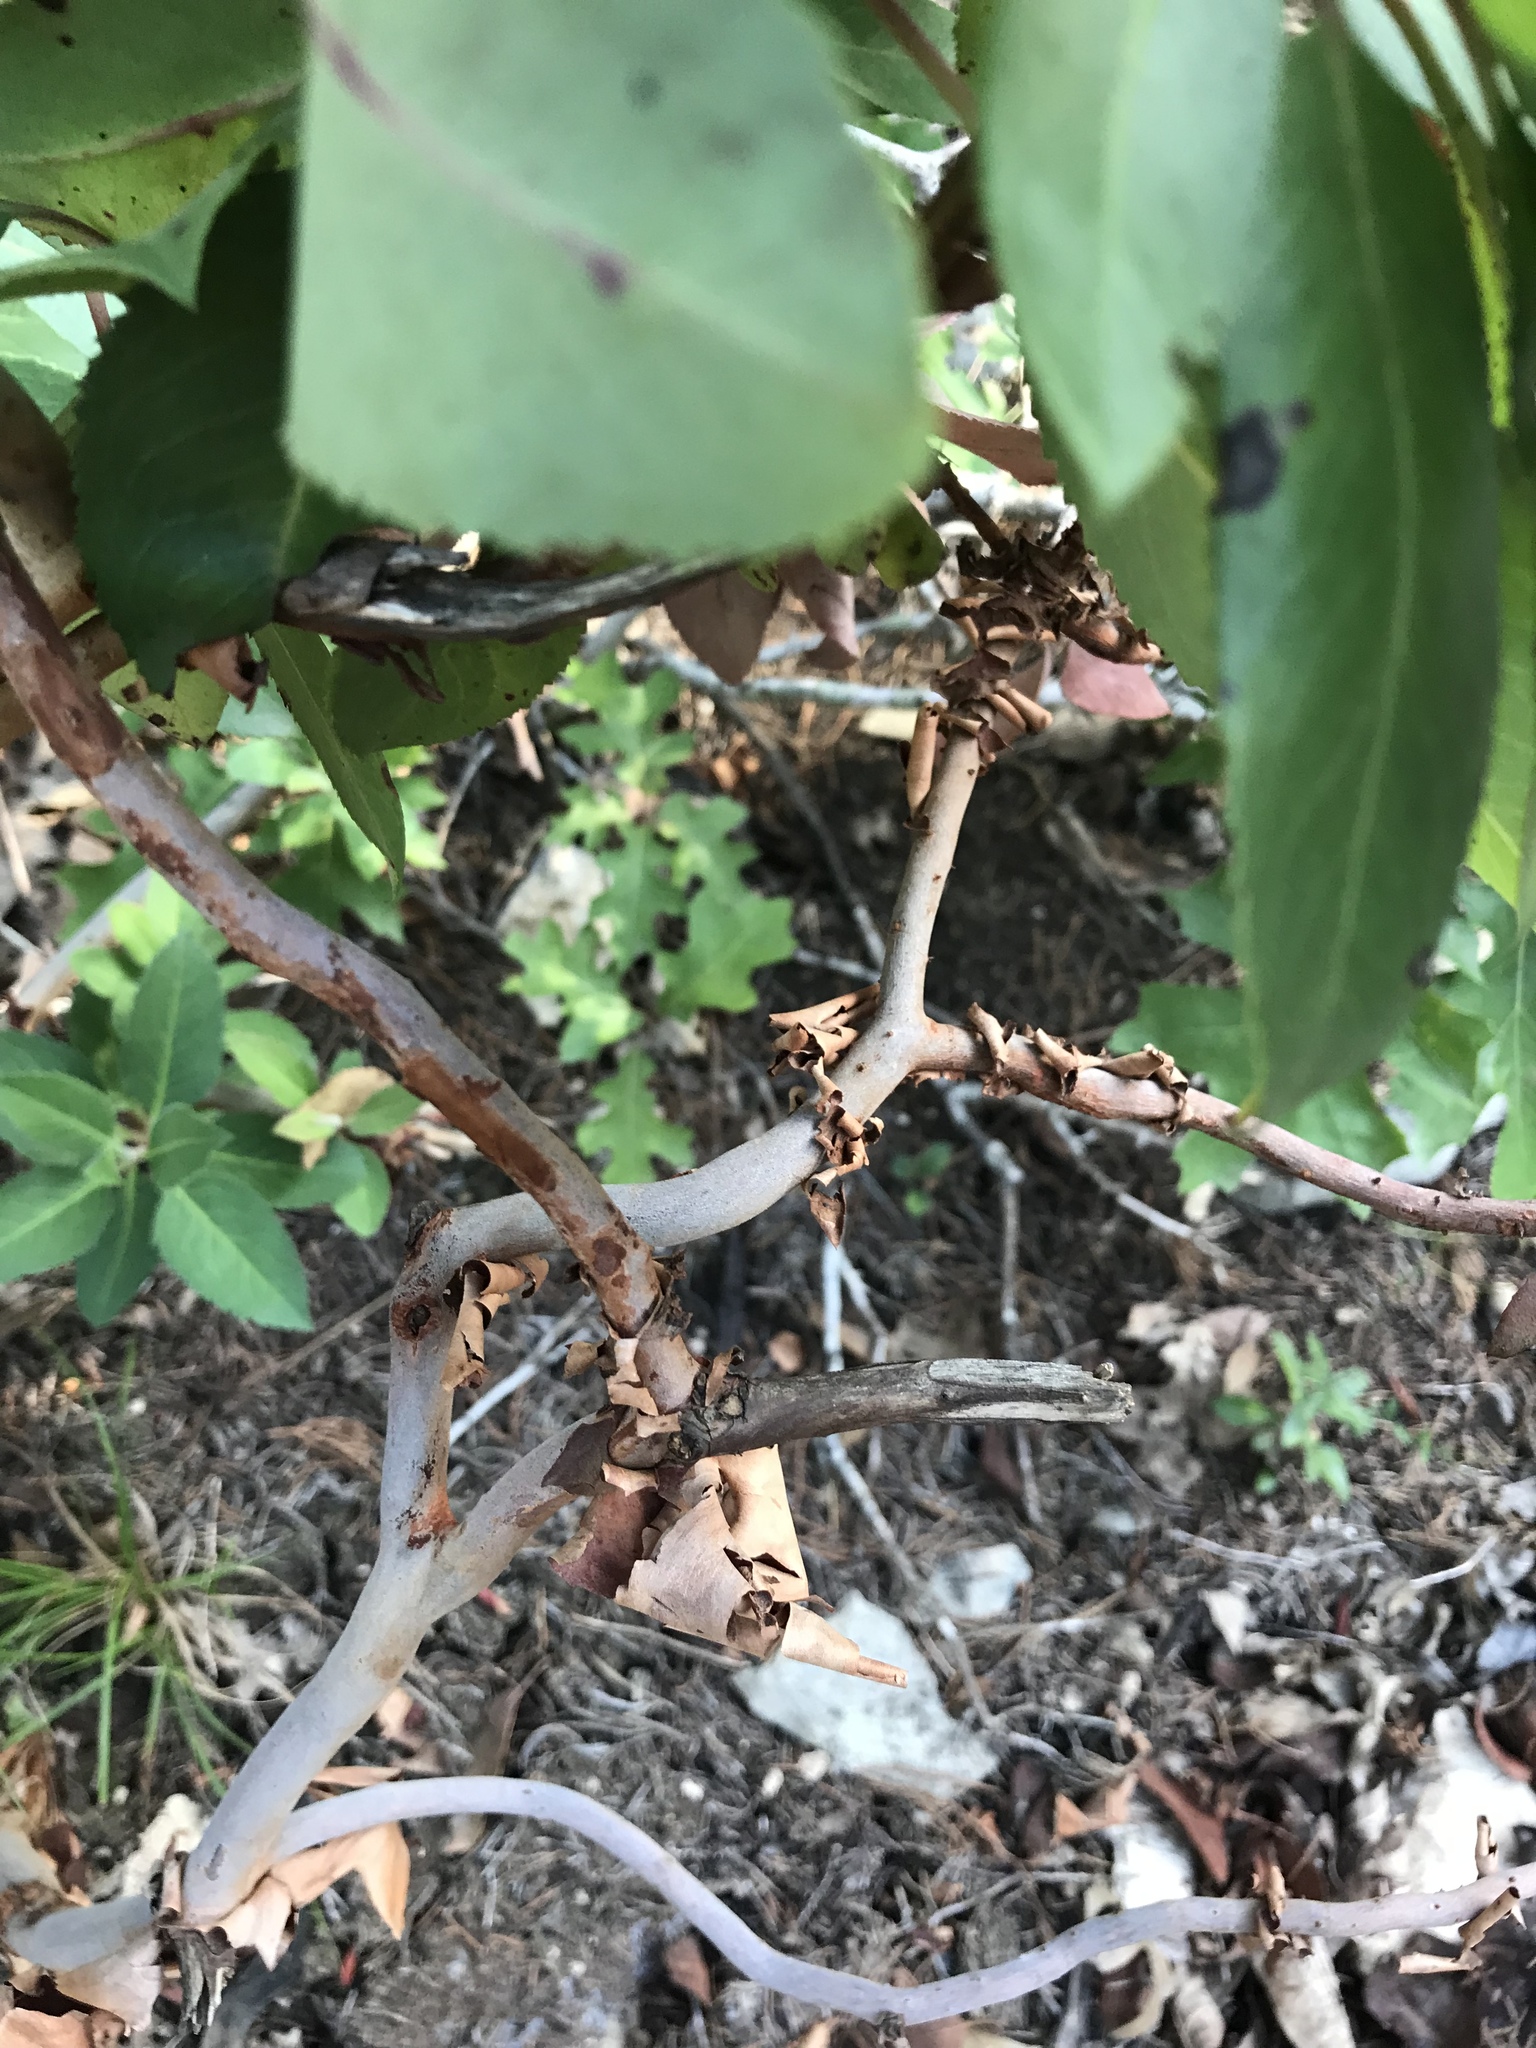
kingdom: Plantae
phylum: Tracheophyta
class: Magnoliopsida
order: Ericales
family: Ericaceae
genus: Arbutus
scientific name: Arbutus xalapensis
